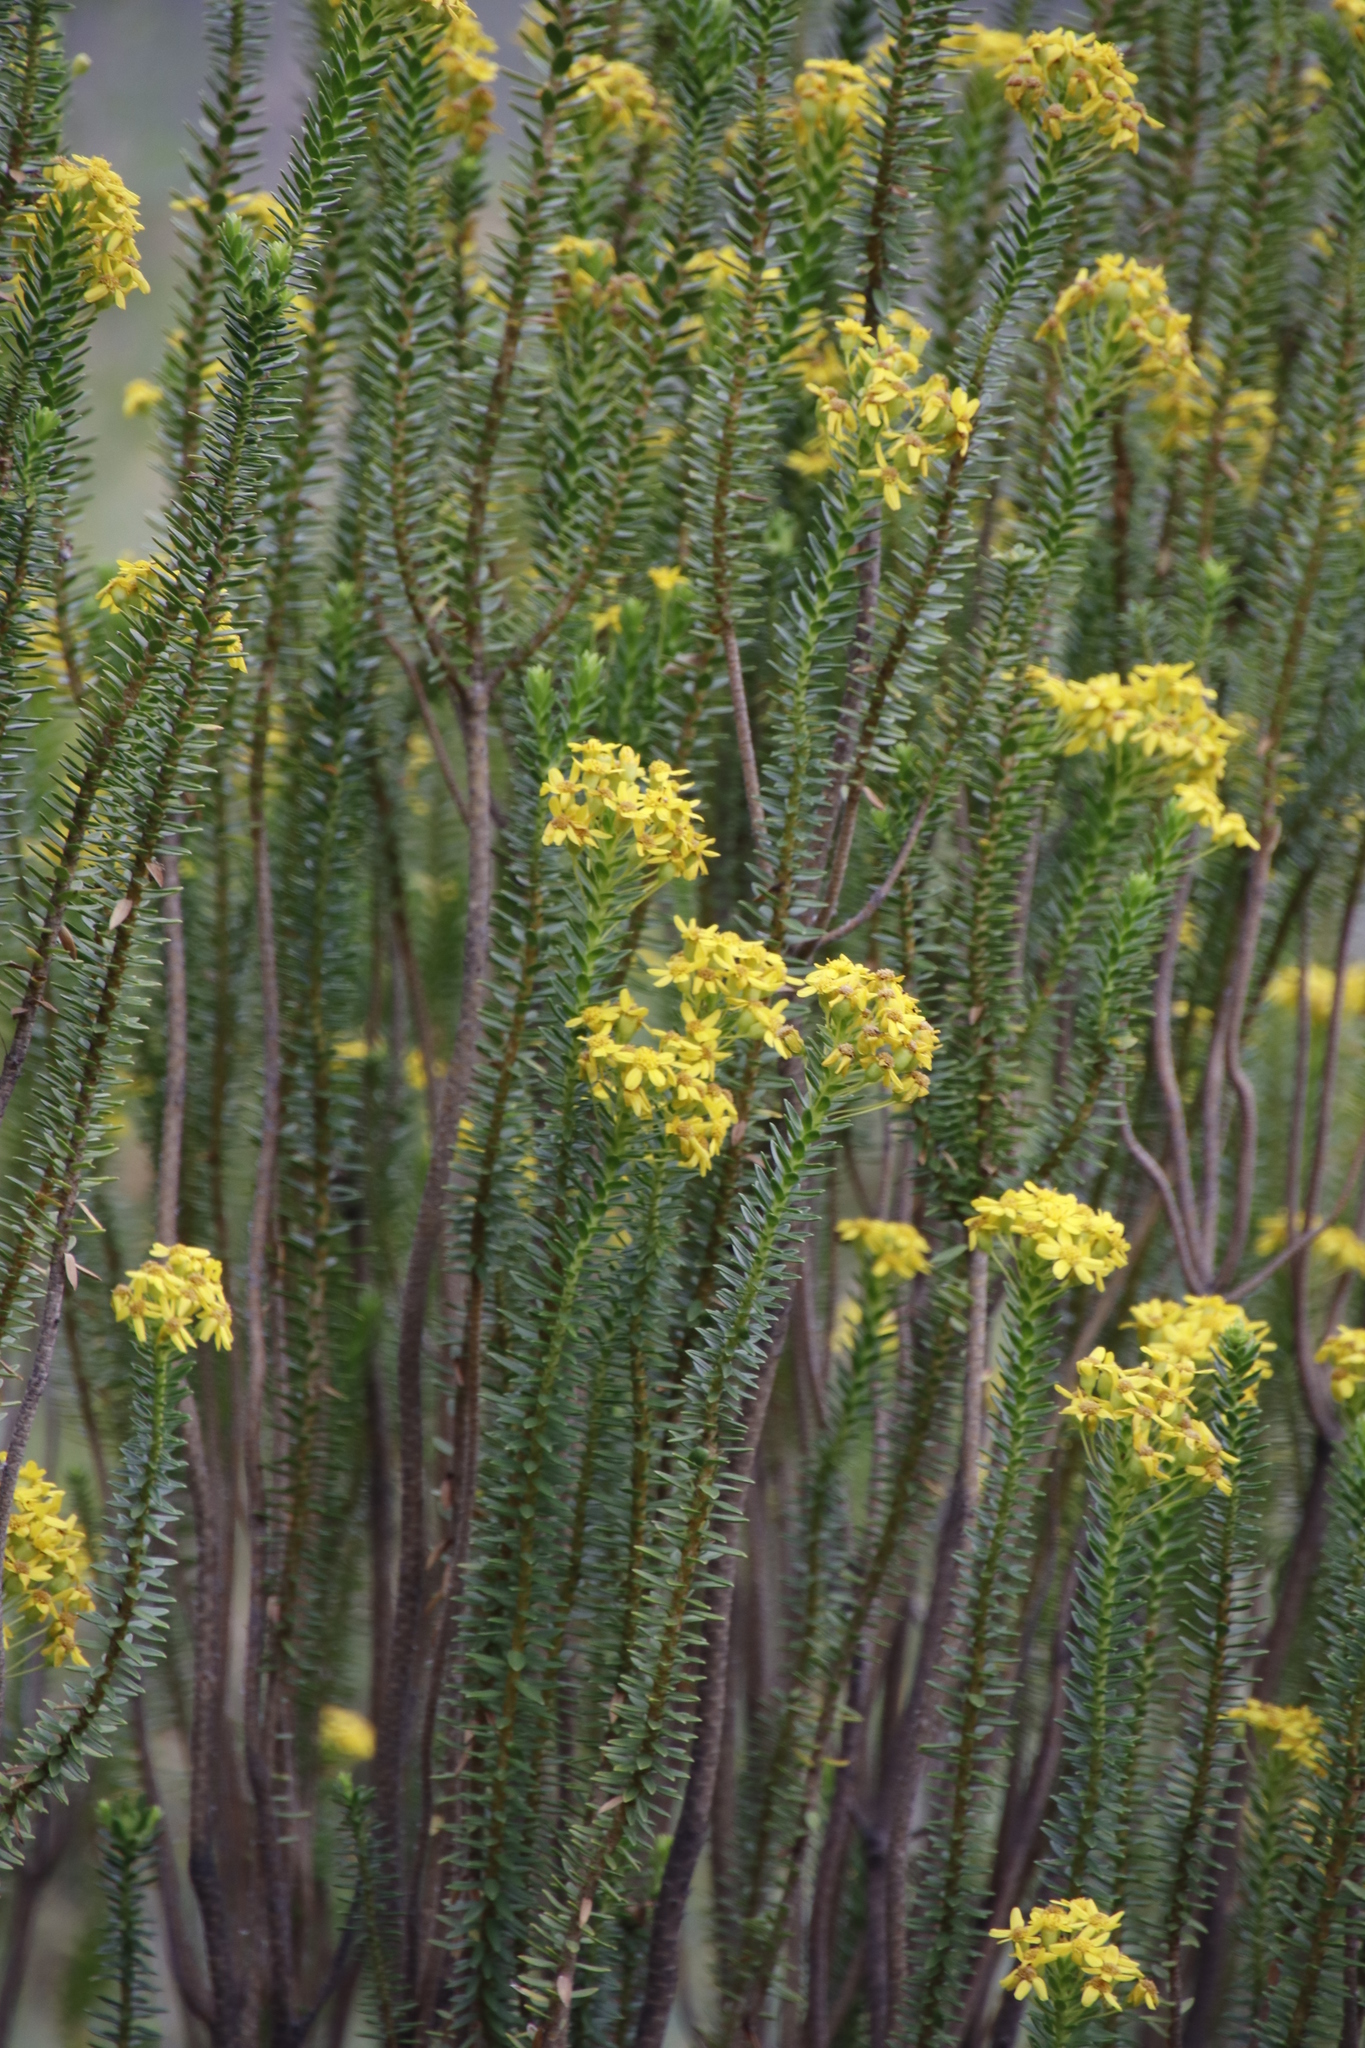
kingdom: Plantae
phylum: Tracheophyta
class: Magnoliopsida
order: Asterales
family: Asteraceae
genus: Euryops
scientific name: Euryops tysonii
